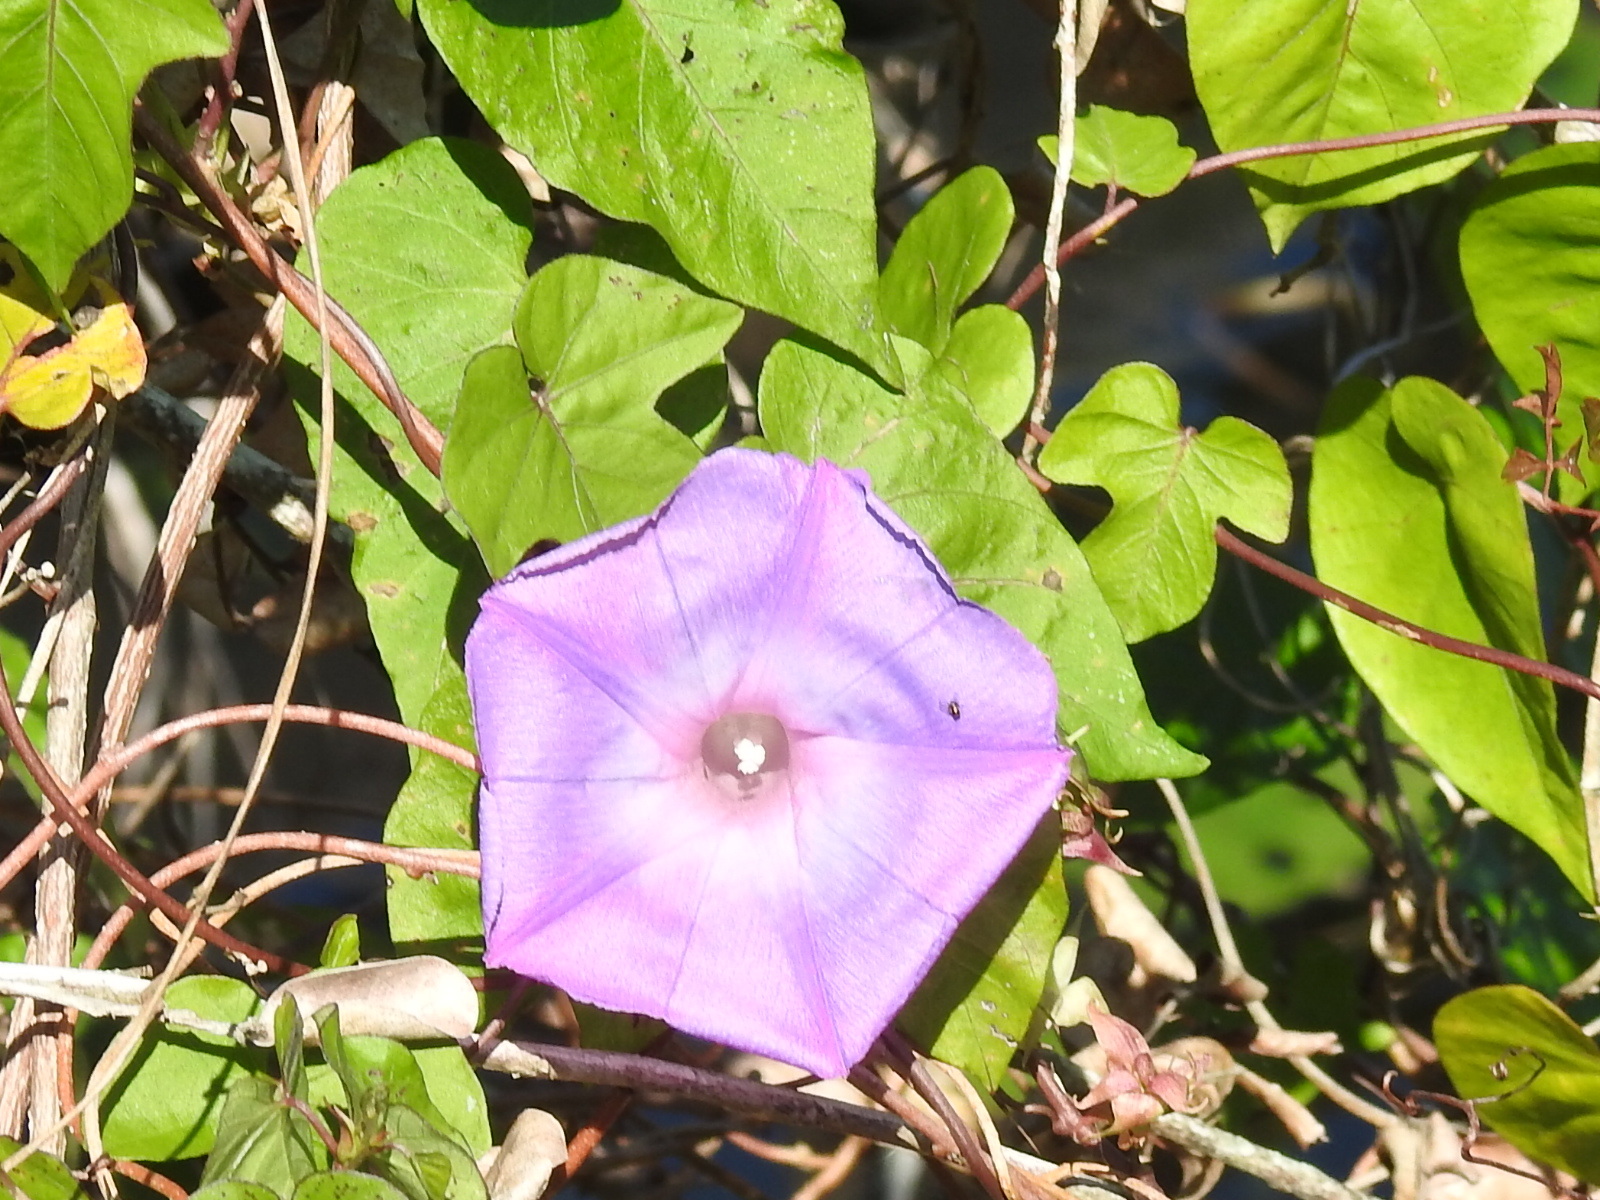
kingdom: Plantae
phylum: Tracheophyta
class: Magnoliopsida
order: Solanales
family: Convolvulaceae
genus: Ipomoea
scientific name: Ipomoea indica
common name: Blue dawnflower
